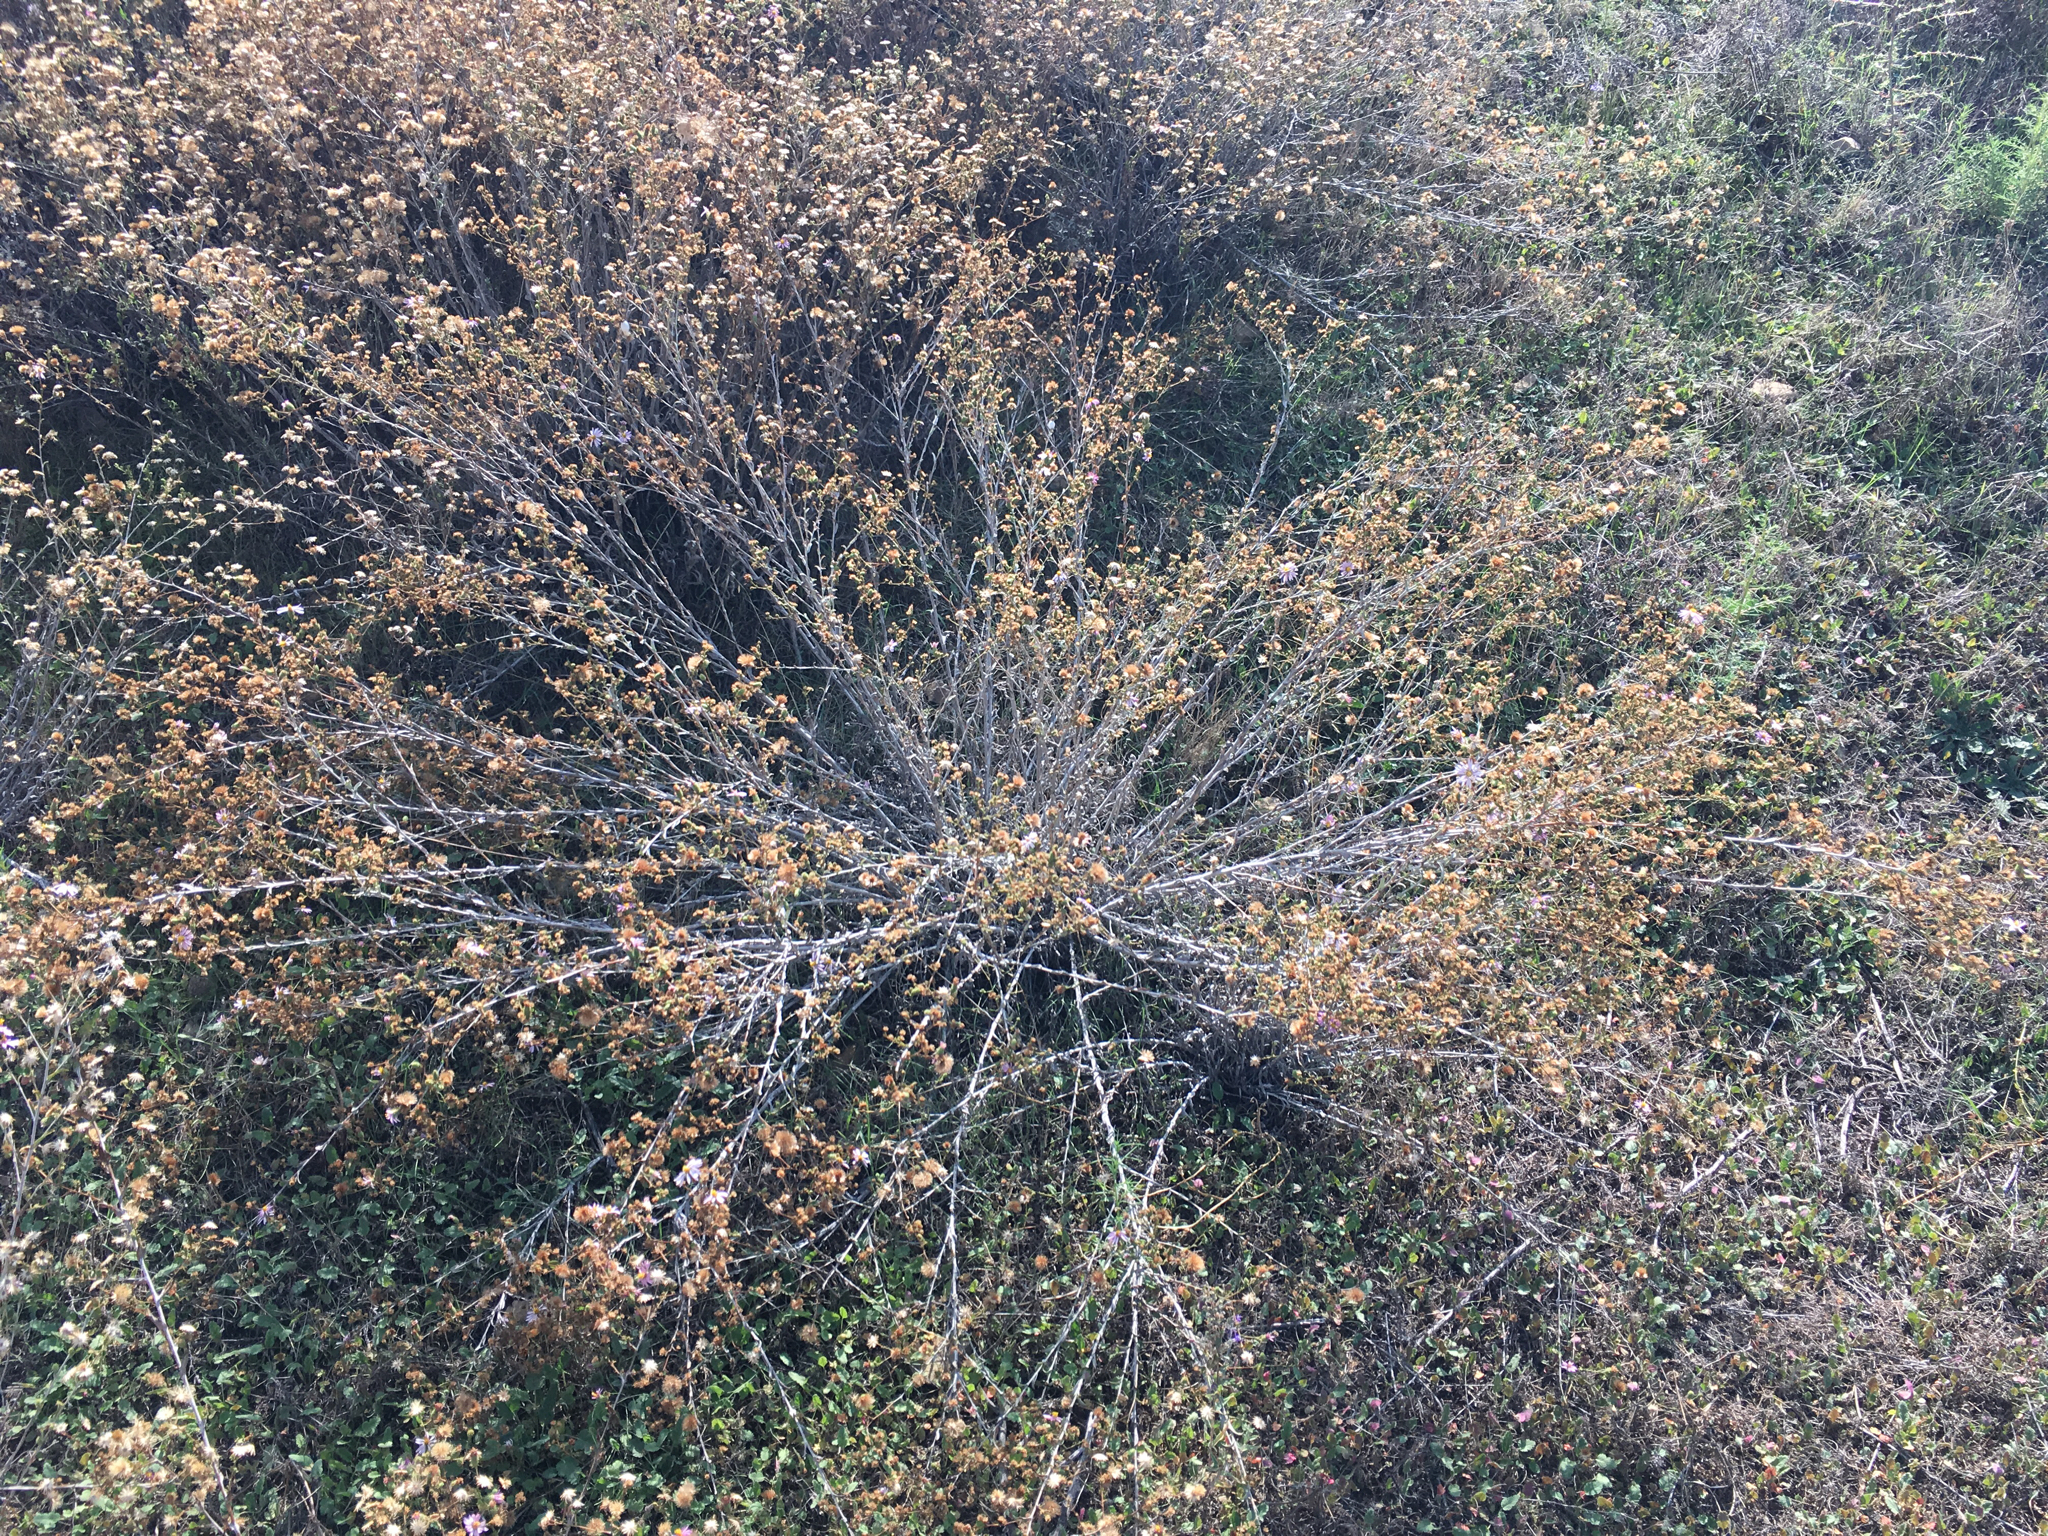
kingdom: Plantae
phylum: Tracheophyta
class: Magnoliopsida
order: Asterales
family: Asteraceae
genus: Corethrogyne
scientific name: Corethrogyne filaginifolia
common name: Sand-aster
